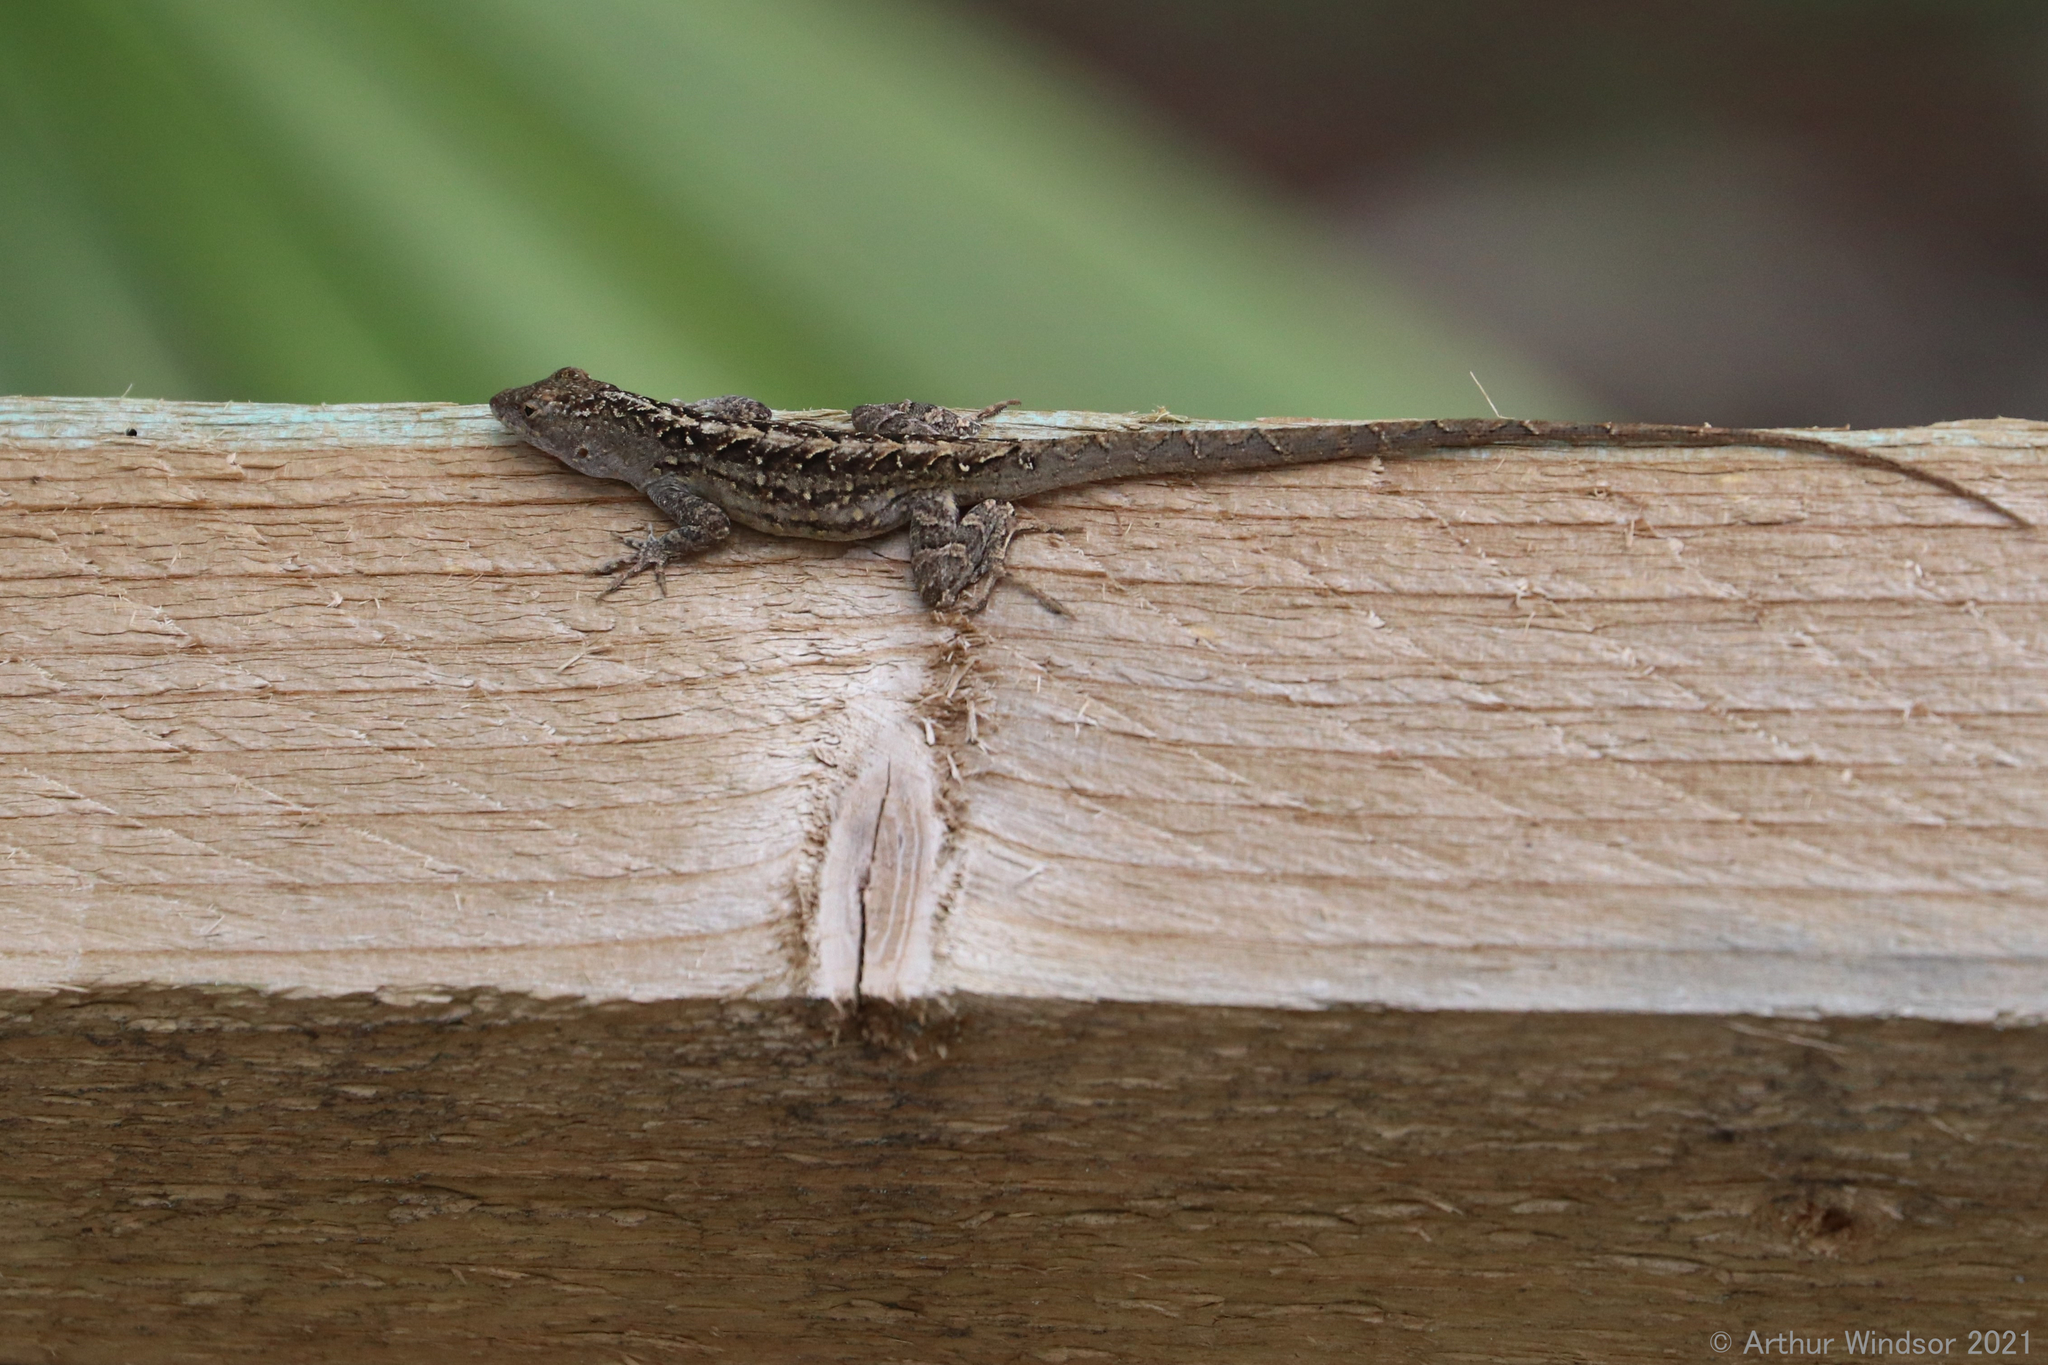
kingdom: Animalia
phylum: Chordata
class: Squamata
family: Dactyloidae
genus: Anolis
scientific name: Anolis sagrei
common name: Brown anole
